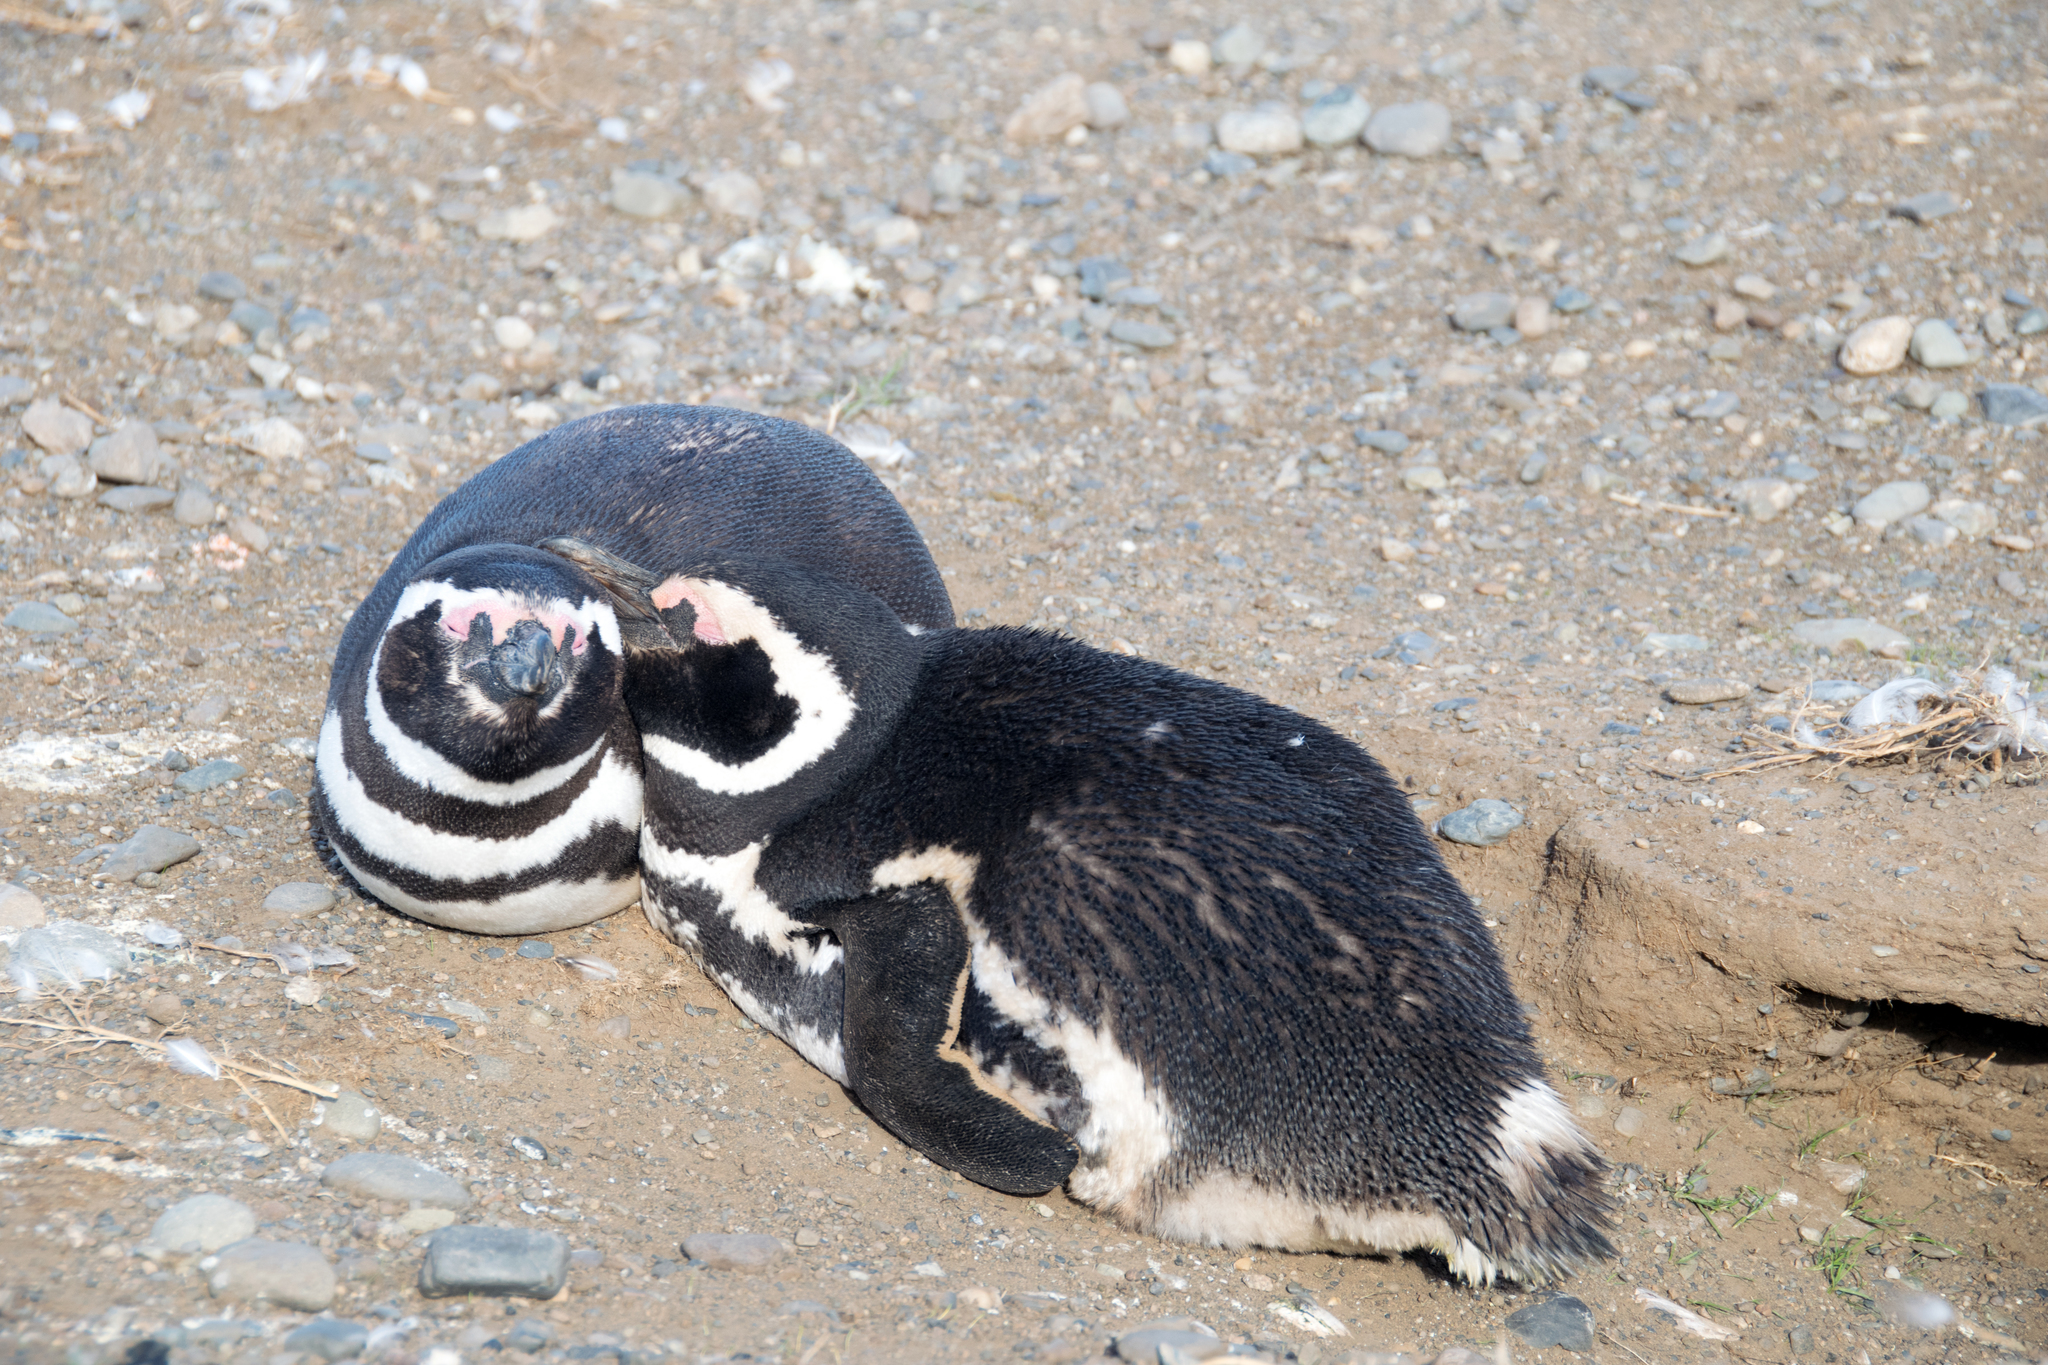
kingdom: Animalia
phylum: Chordata
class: Aves
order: Sphenisciformes
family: Spheniscidae
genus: Spheniscus
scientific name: Spheniscus magellanicus
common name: Magellanic penguin
